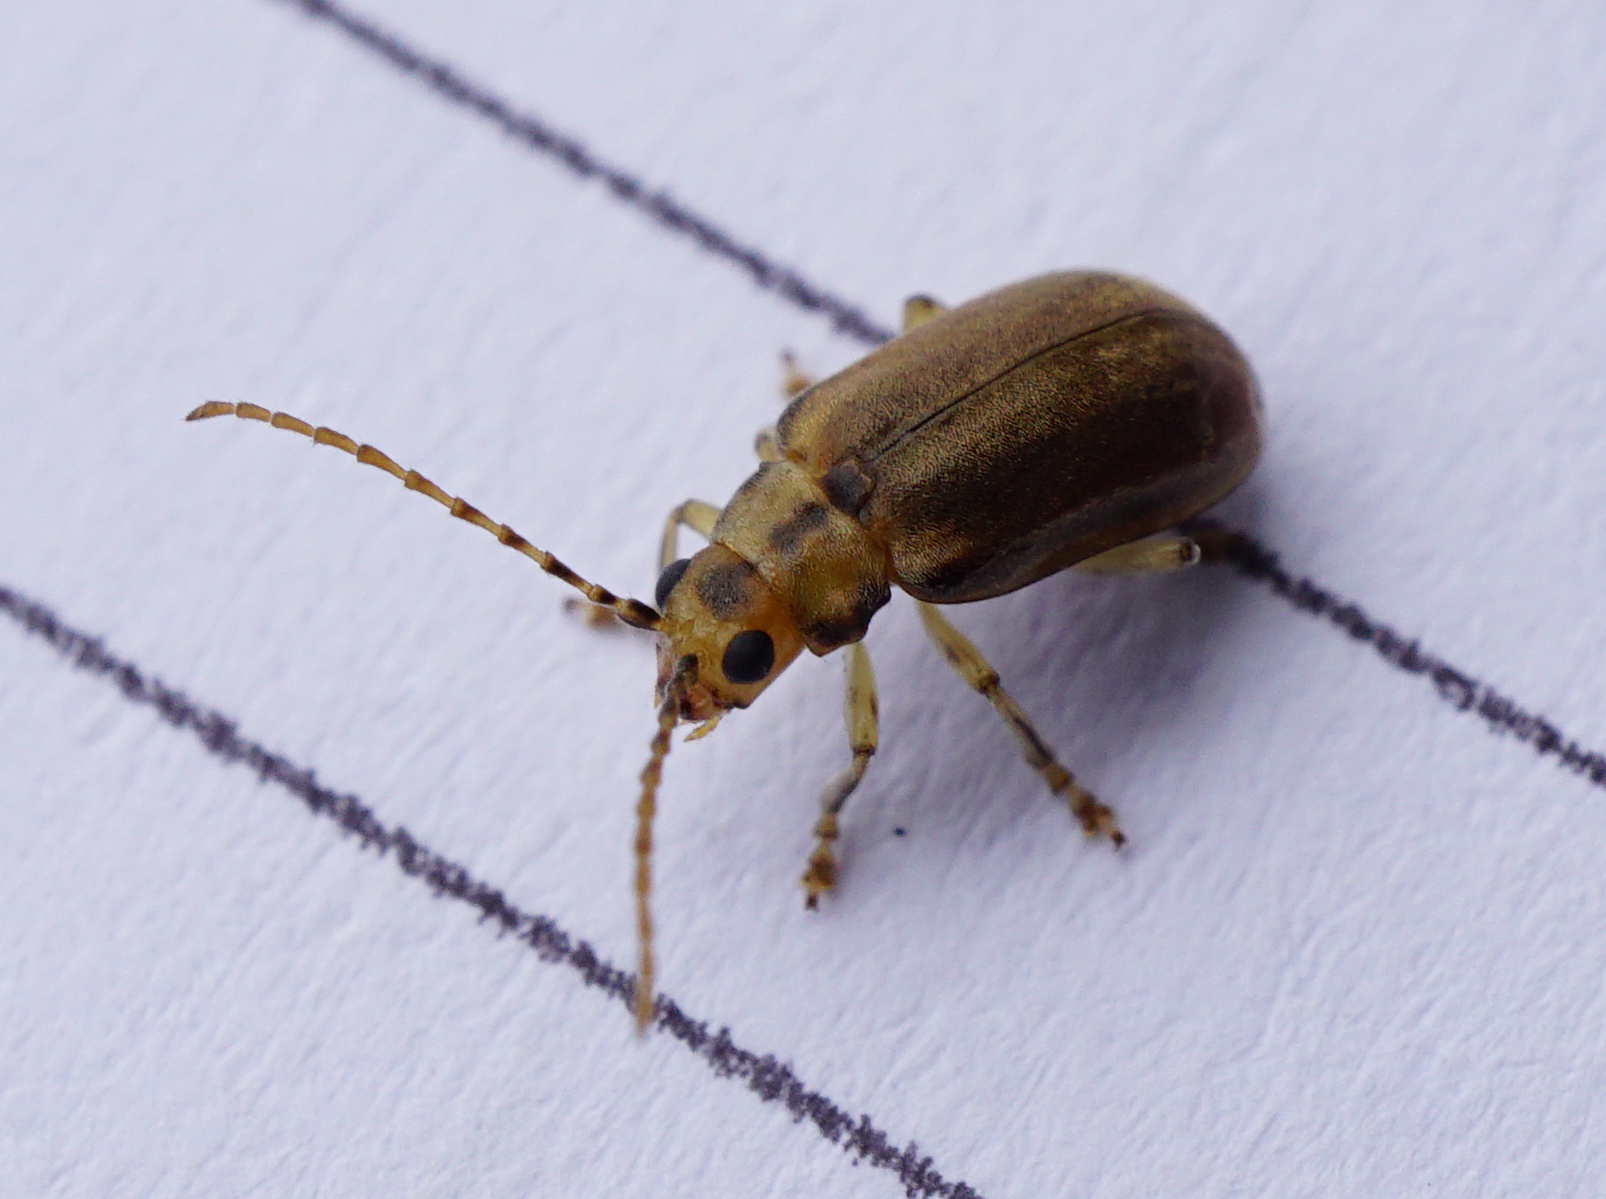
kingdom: Animalia
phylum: Arthropoda
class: Insecta
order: Coleoptera
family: Chrysomelidae
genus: Pyrrhalta
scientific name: Pyrrhalta viburni
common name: Guelder-rose leaf beetle
